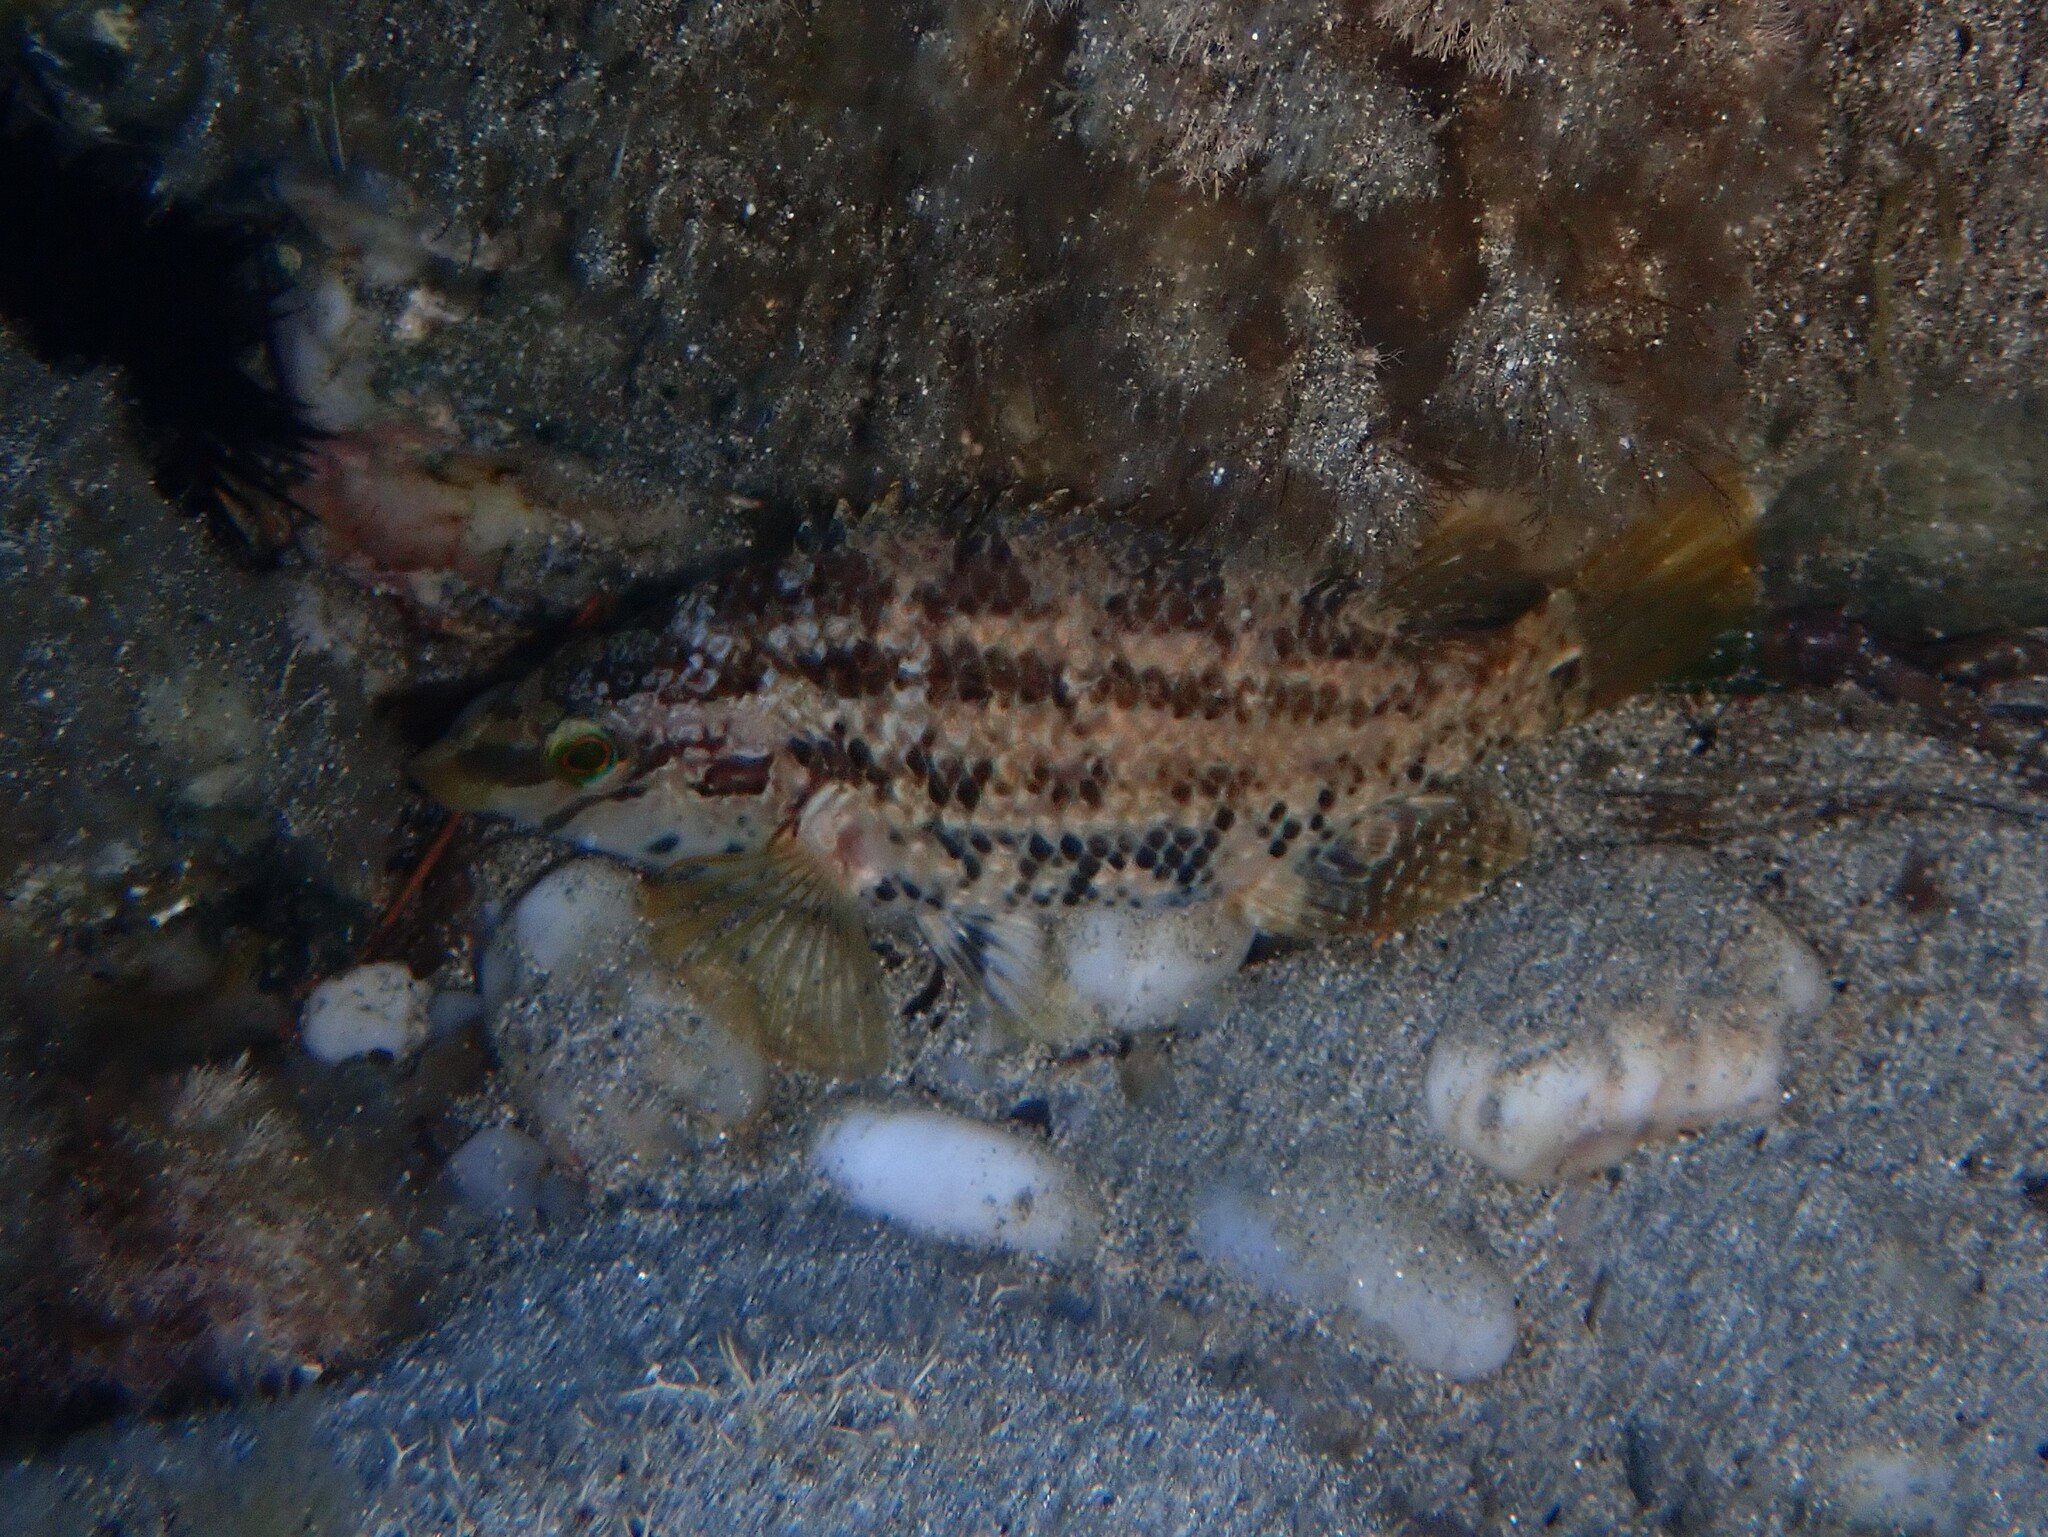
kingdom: Animalia
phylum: Chordata
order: Perciformes
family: Labridae
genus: Symphodus
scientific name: Symphodus roissali
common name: Five-spotted wrasse
